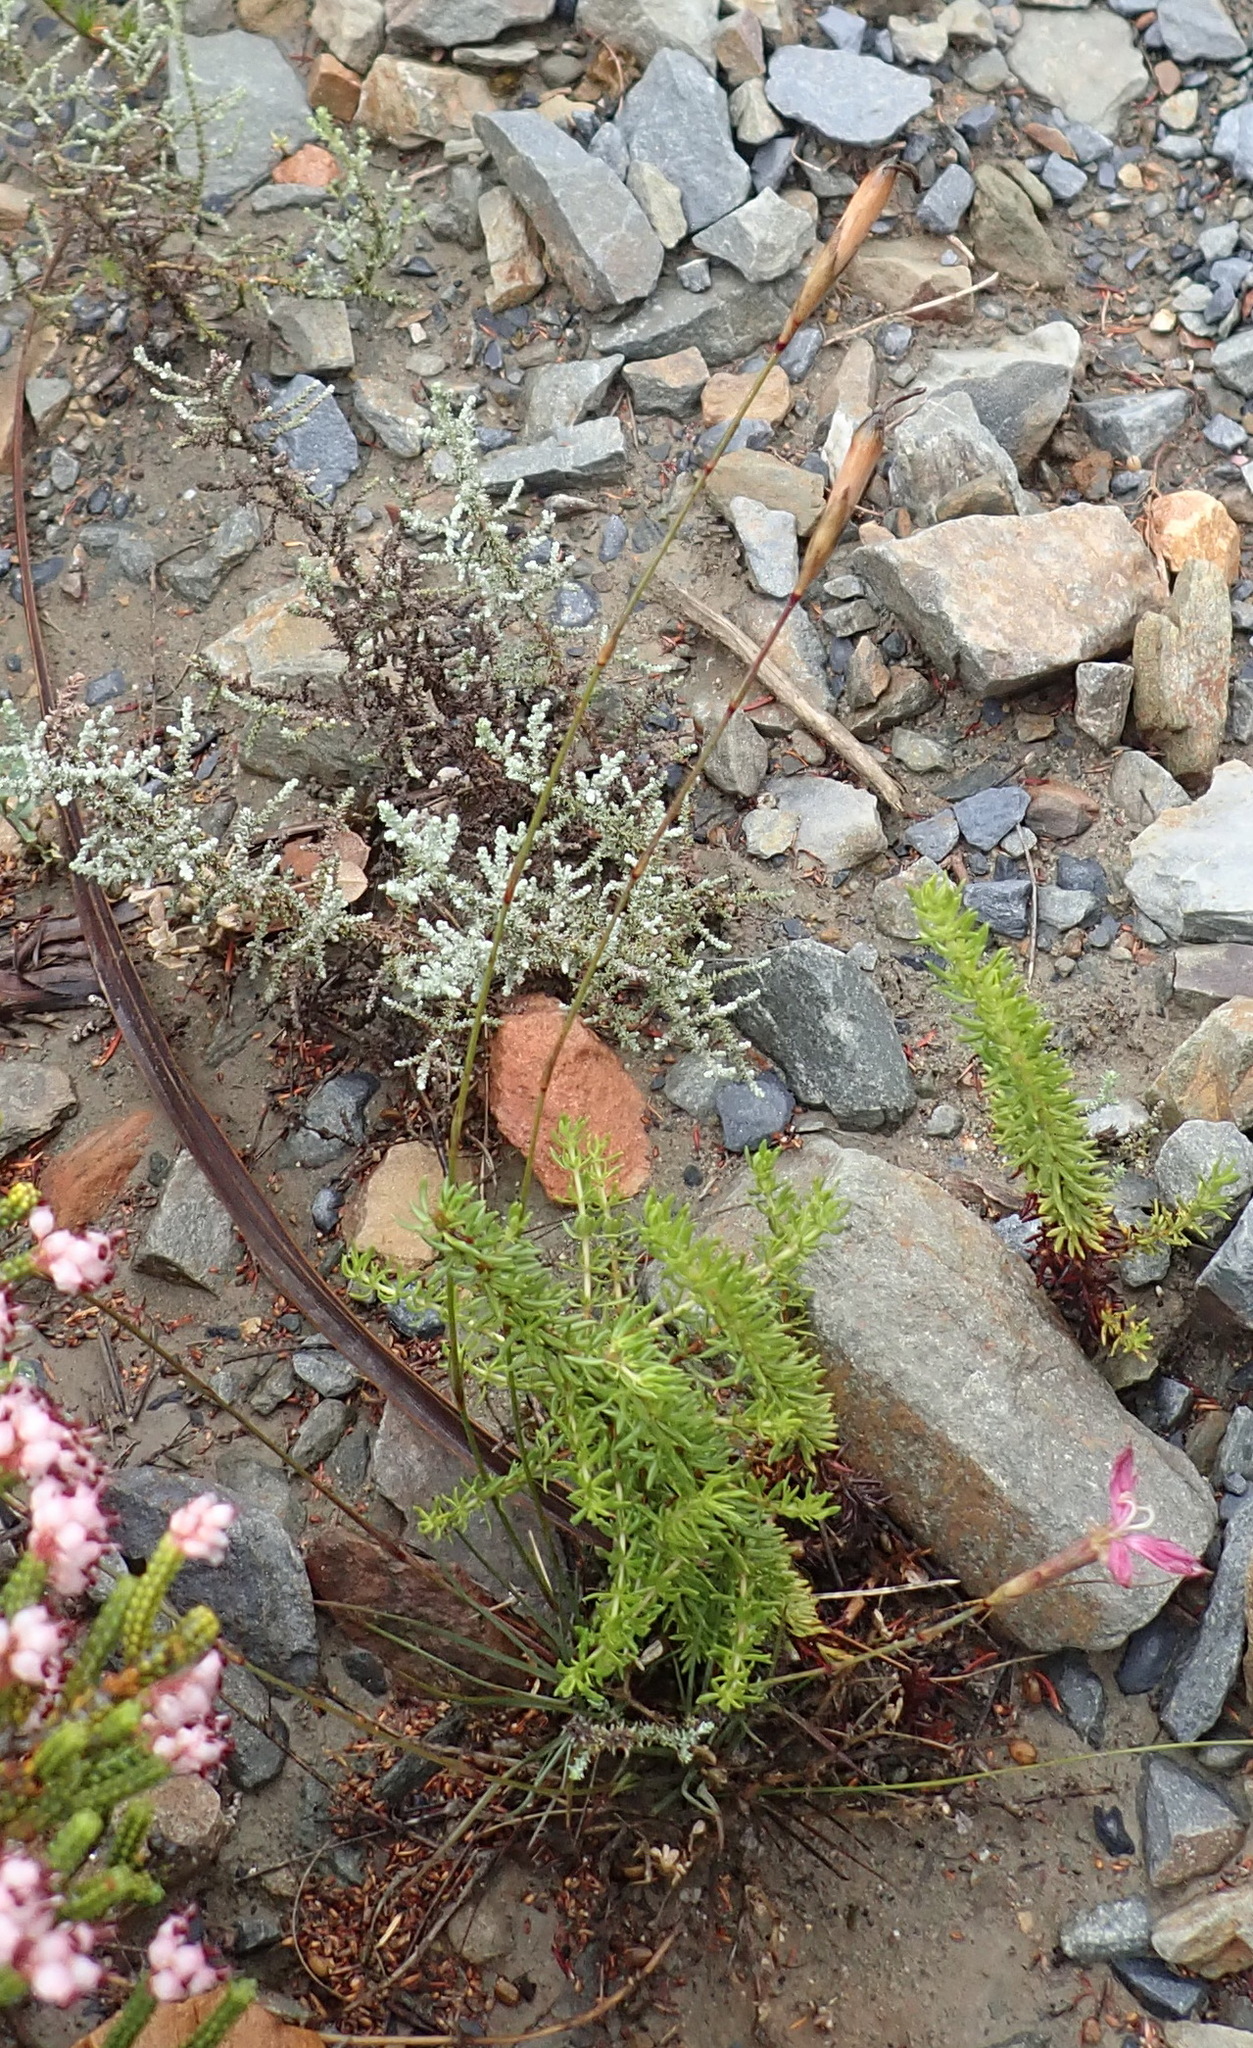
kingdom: Plantae
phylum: Tracheophyta
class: Magnoliopsida
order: Caryophyllales
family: Caryophyllaceae
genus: Dianthus
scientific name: Dianthus bolusii
